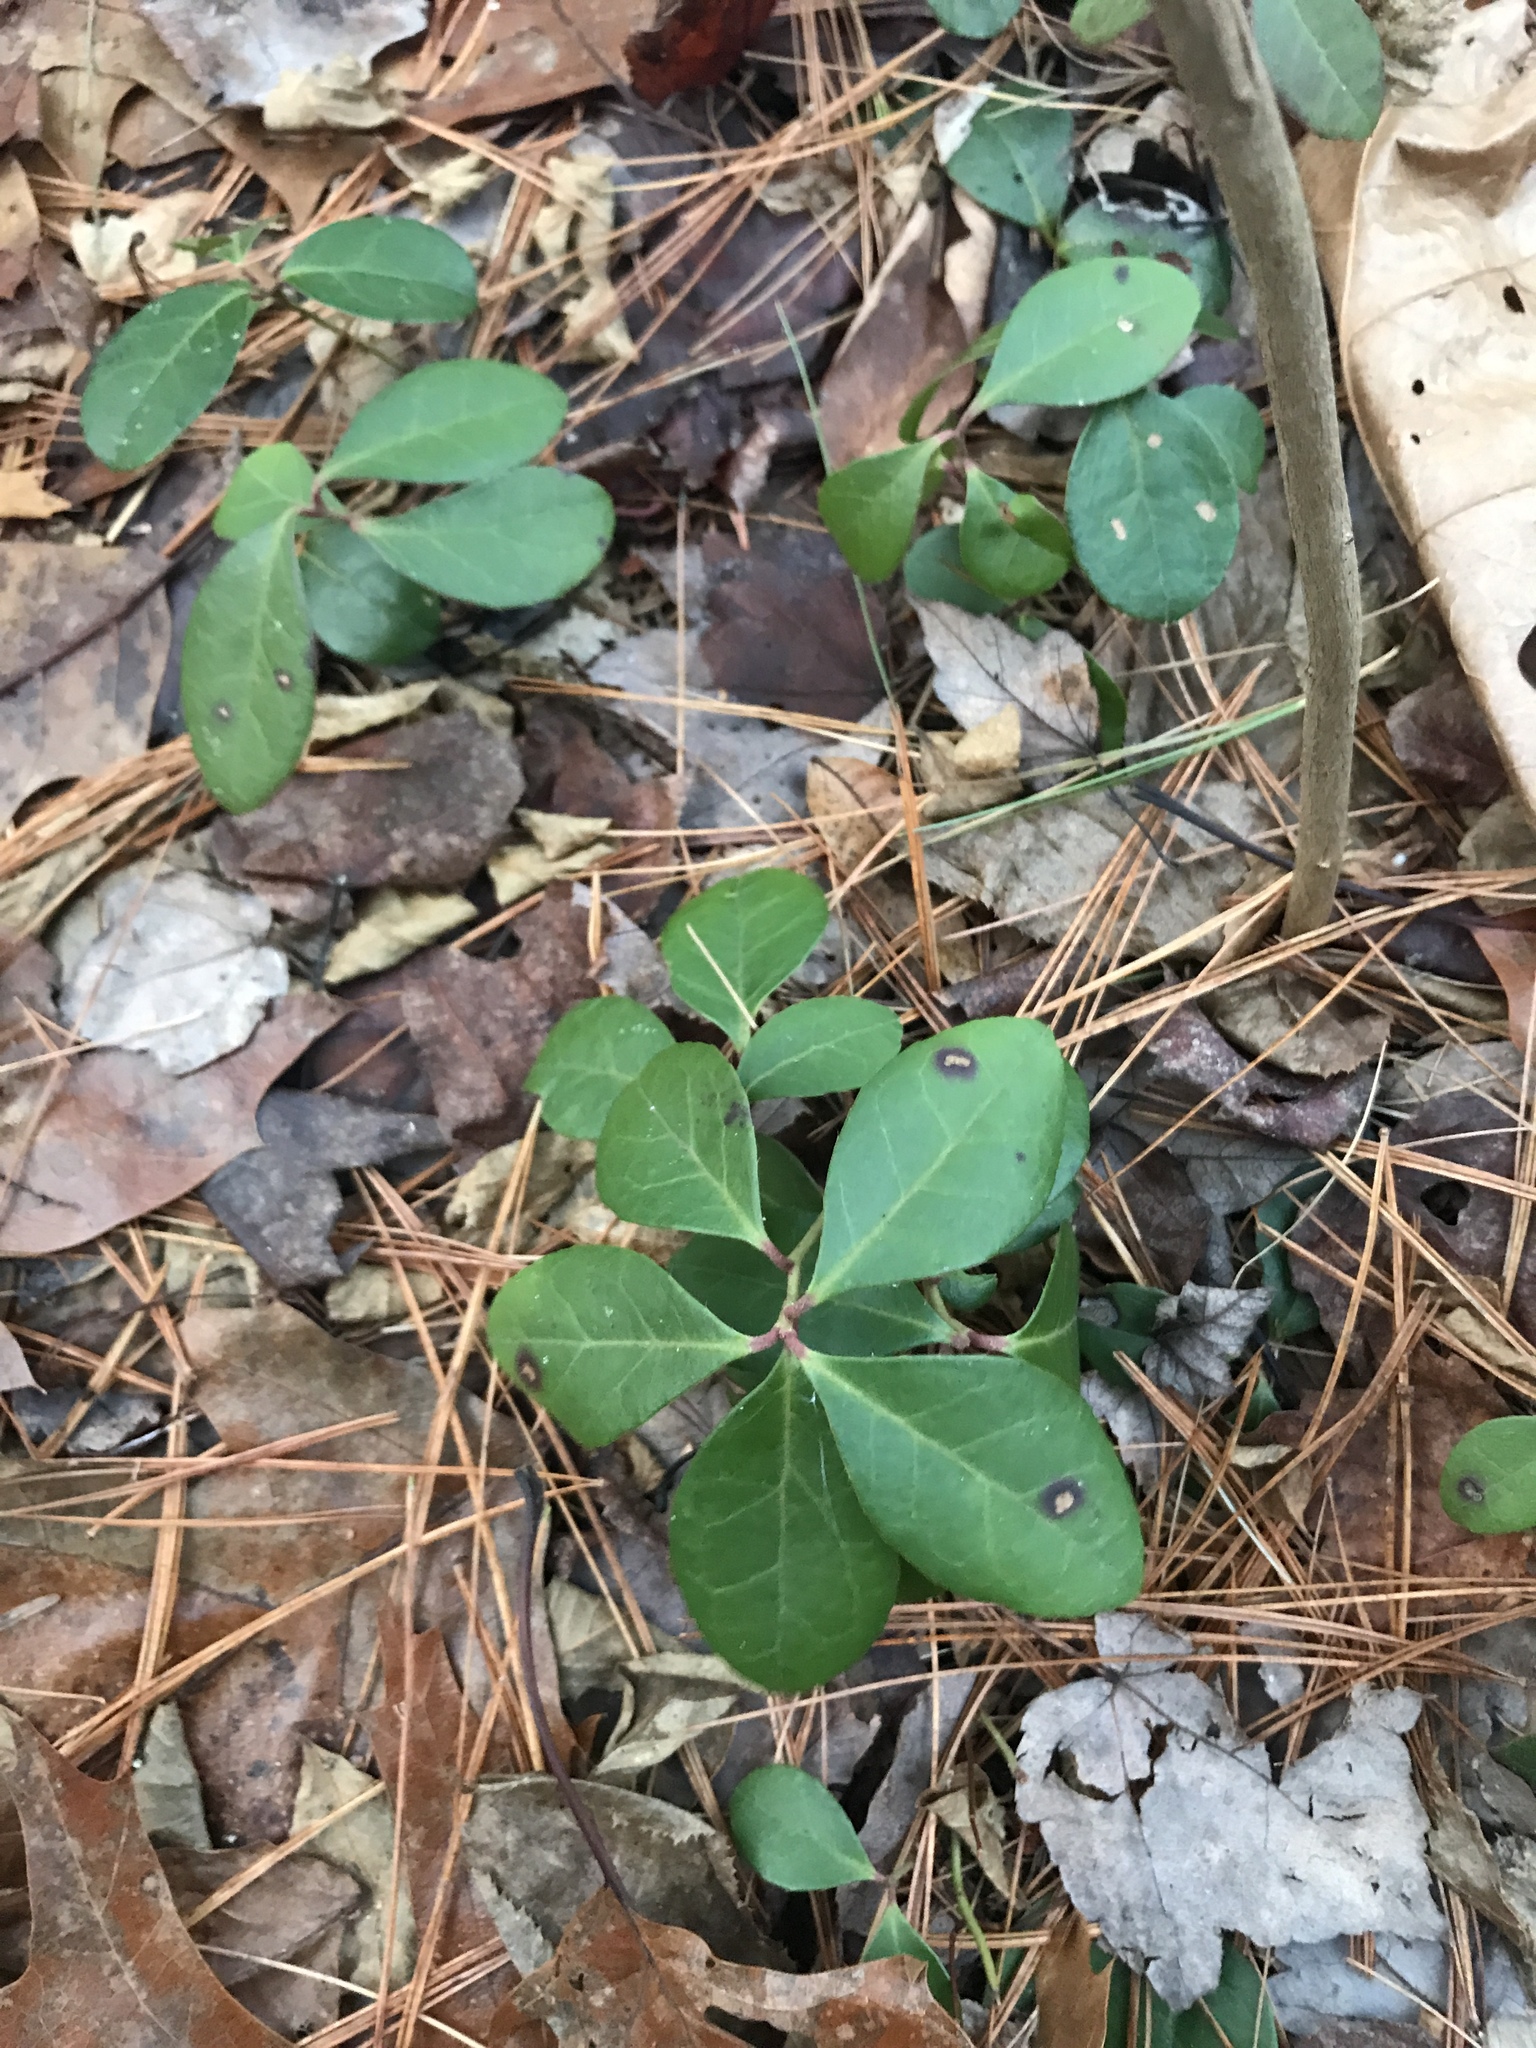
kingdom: Plantae
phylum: Tracheophyta
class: Magnoliopsida
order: Ericales
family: Ericaceae
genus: Gaultheria
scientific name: Gaultheria procumbens
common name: Checkerberry
